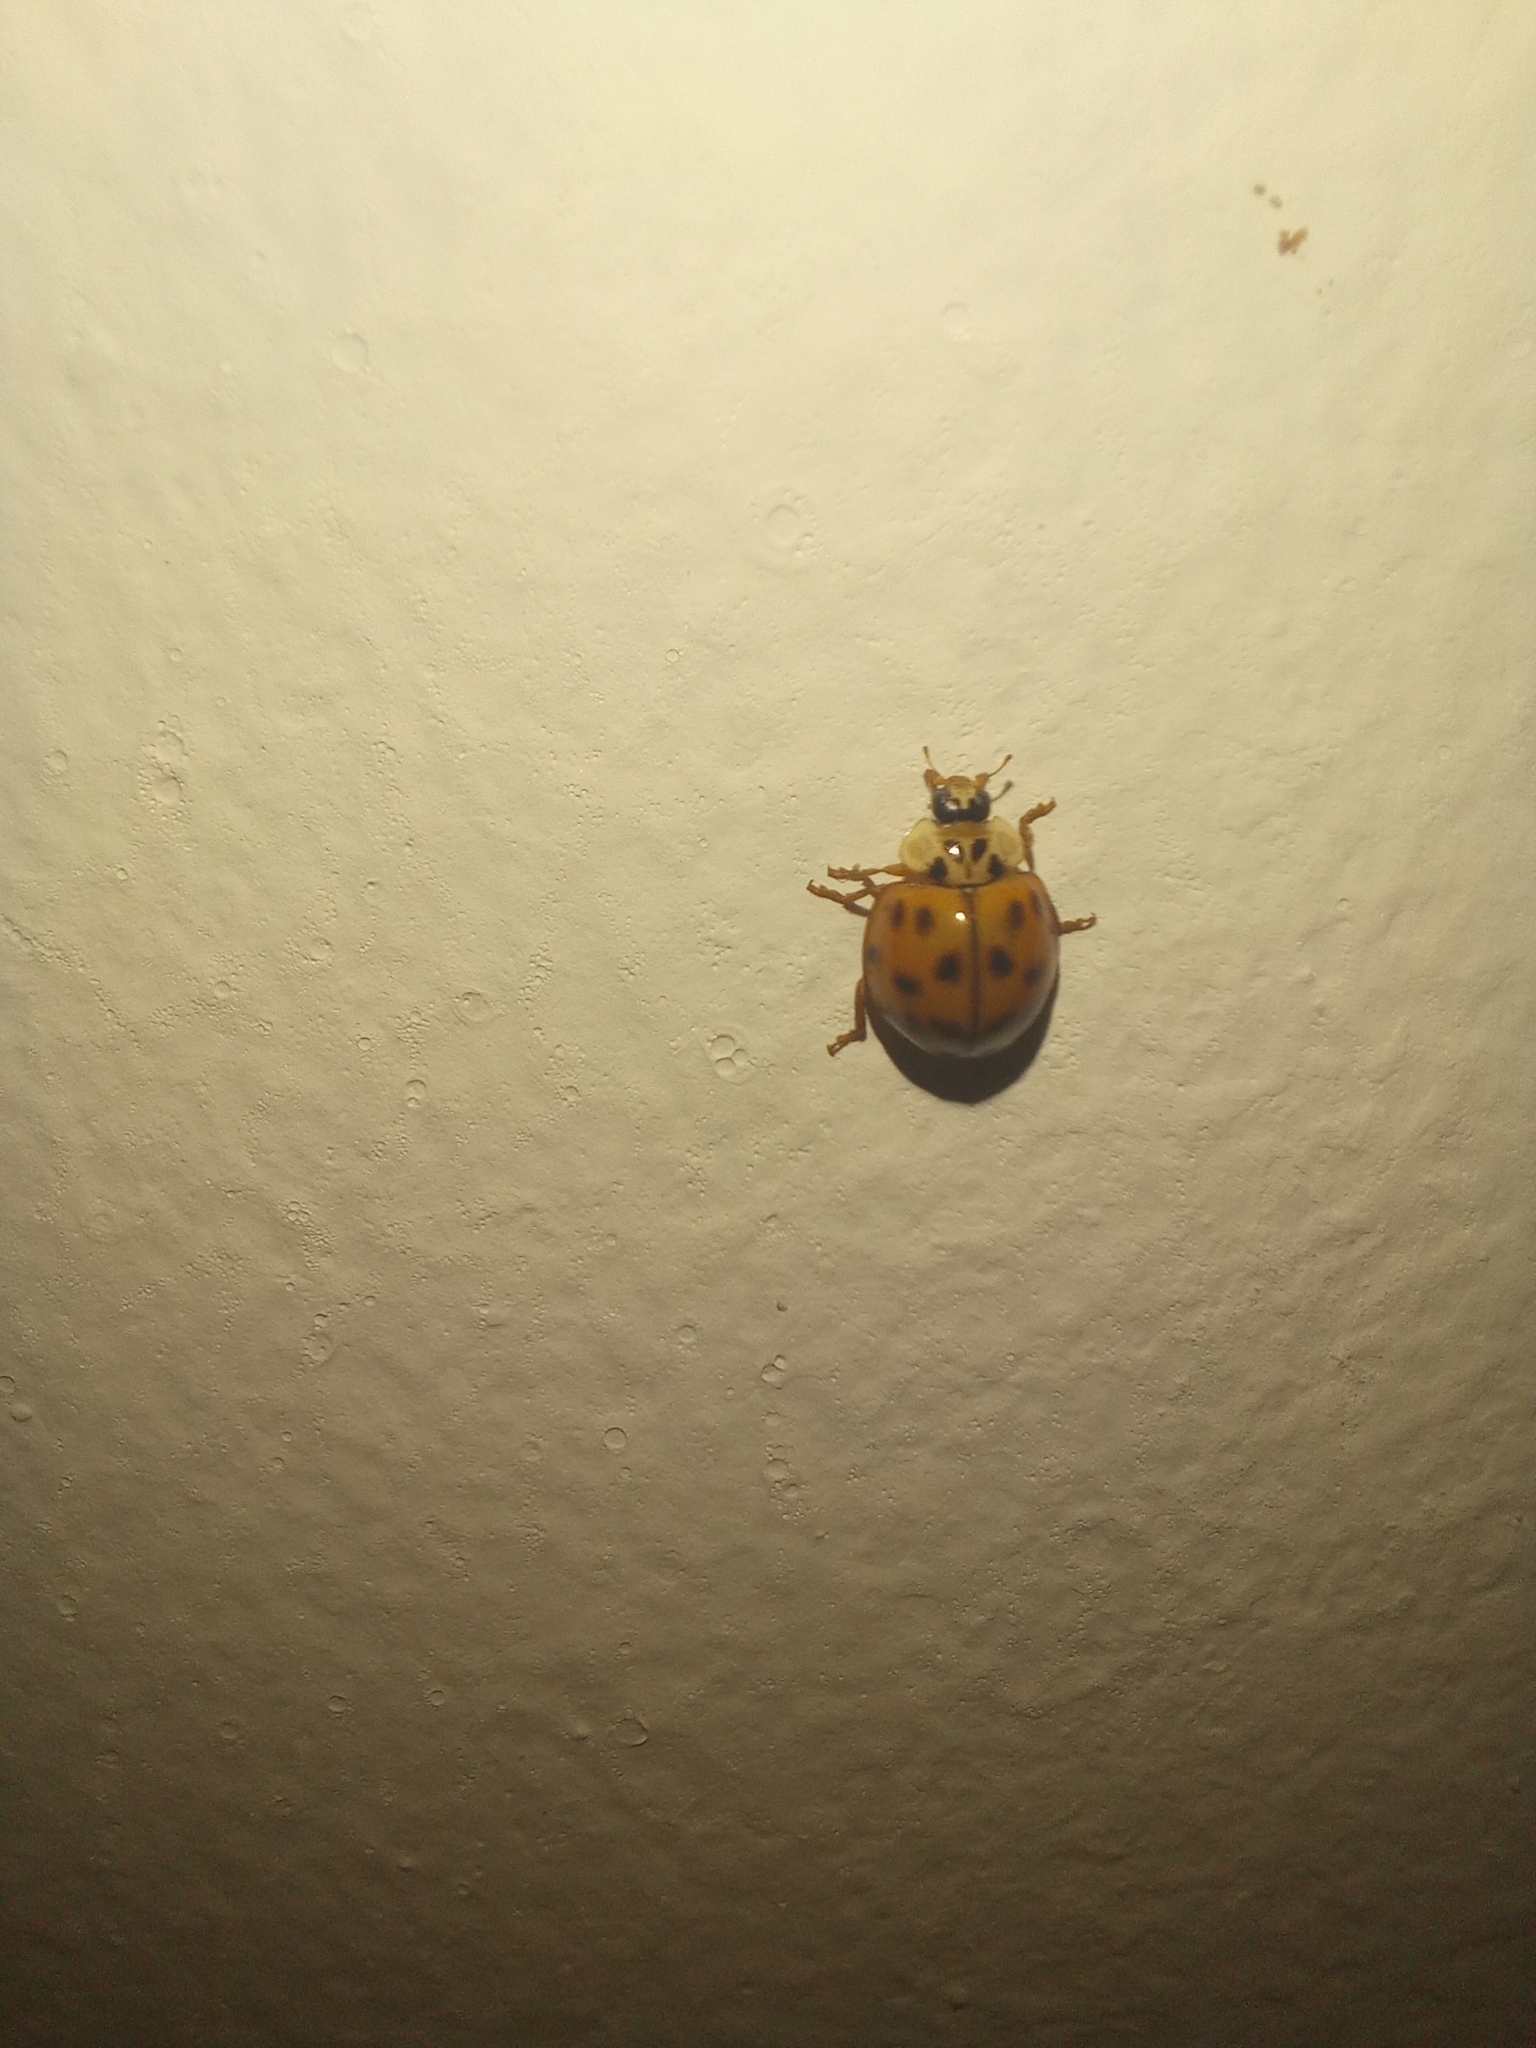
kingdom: Animalia
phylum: Arthropoda
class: Insecta
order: Coleoptera
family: Coccinellidae
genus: Harmonia
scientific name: Harmonia axyridis
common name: Harlequin ladybird
